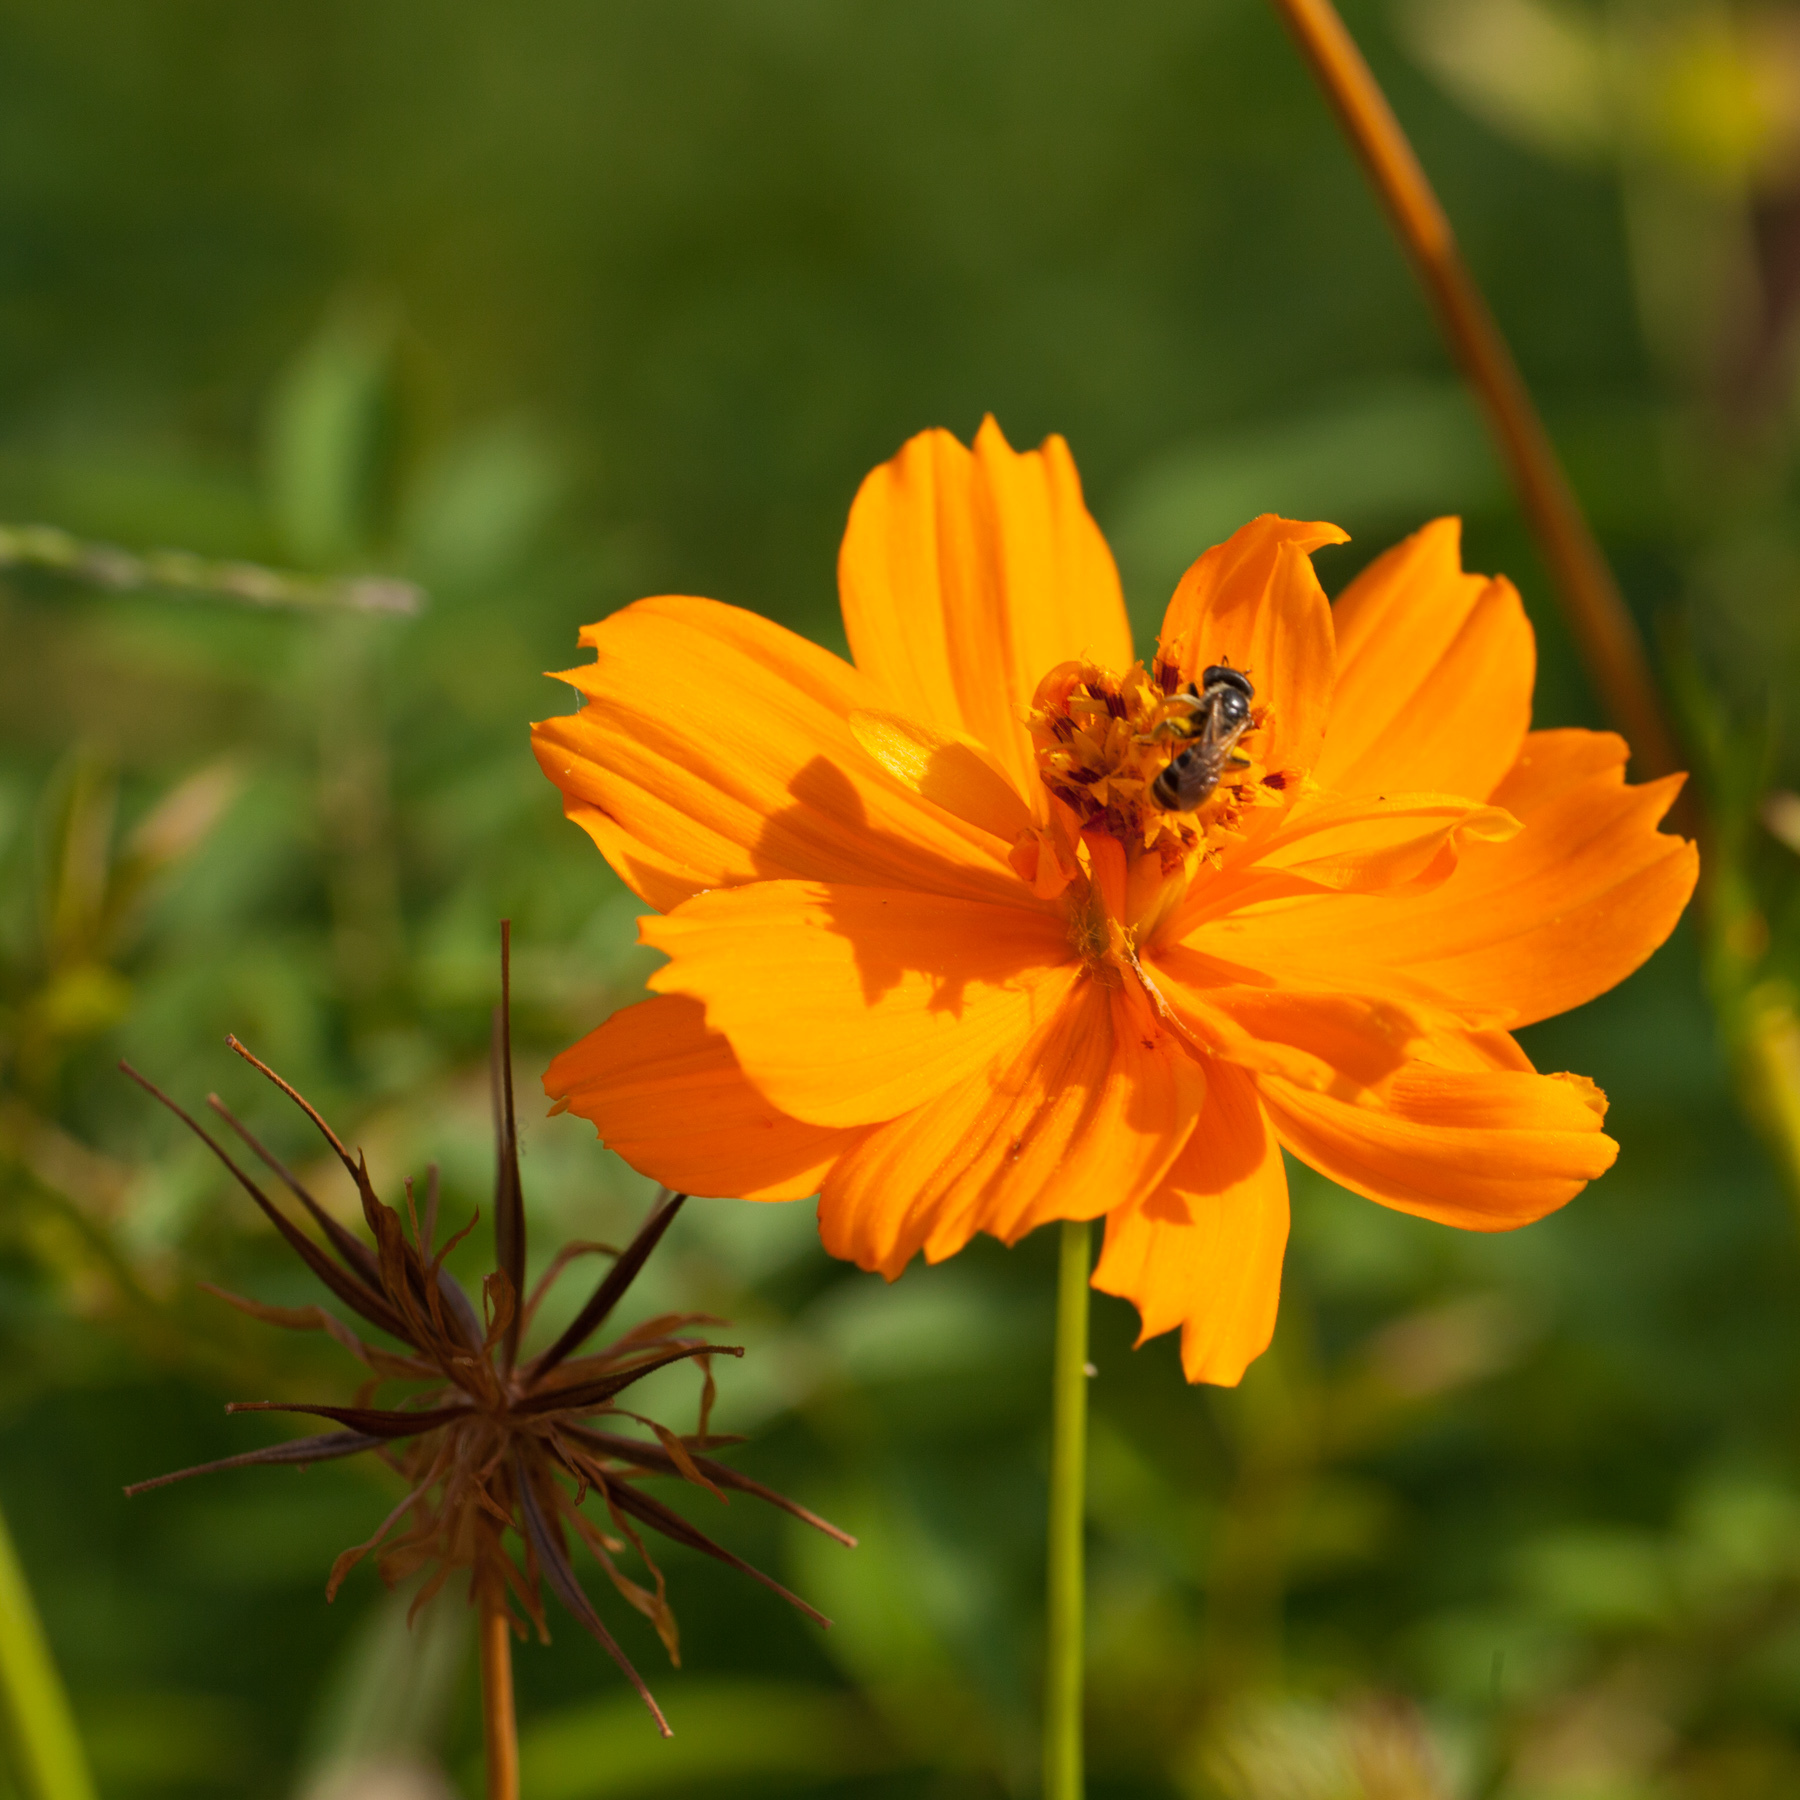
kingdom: Plantae
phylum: Tracheophyta
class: Magnoliopsida
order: Asterales
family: Asteraceae
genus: Cosmos
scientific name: Cosmos sulphureus
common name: Sulphur cosmos
